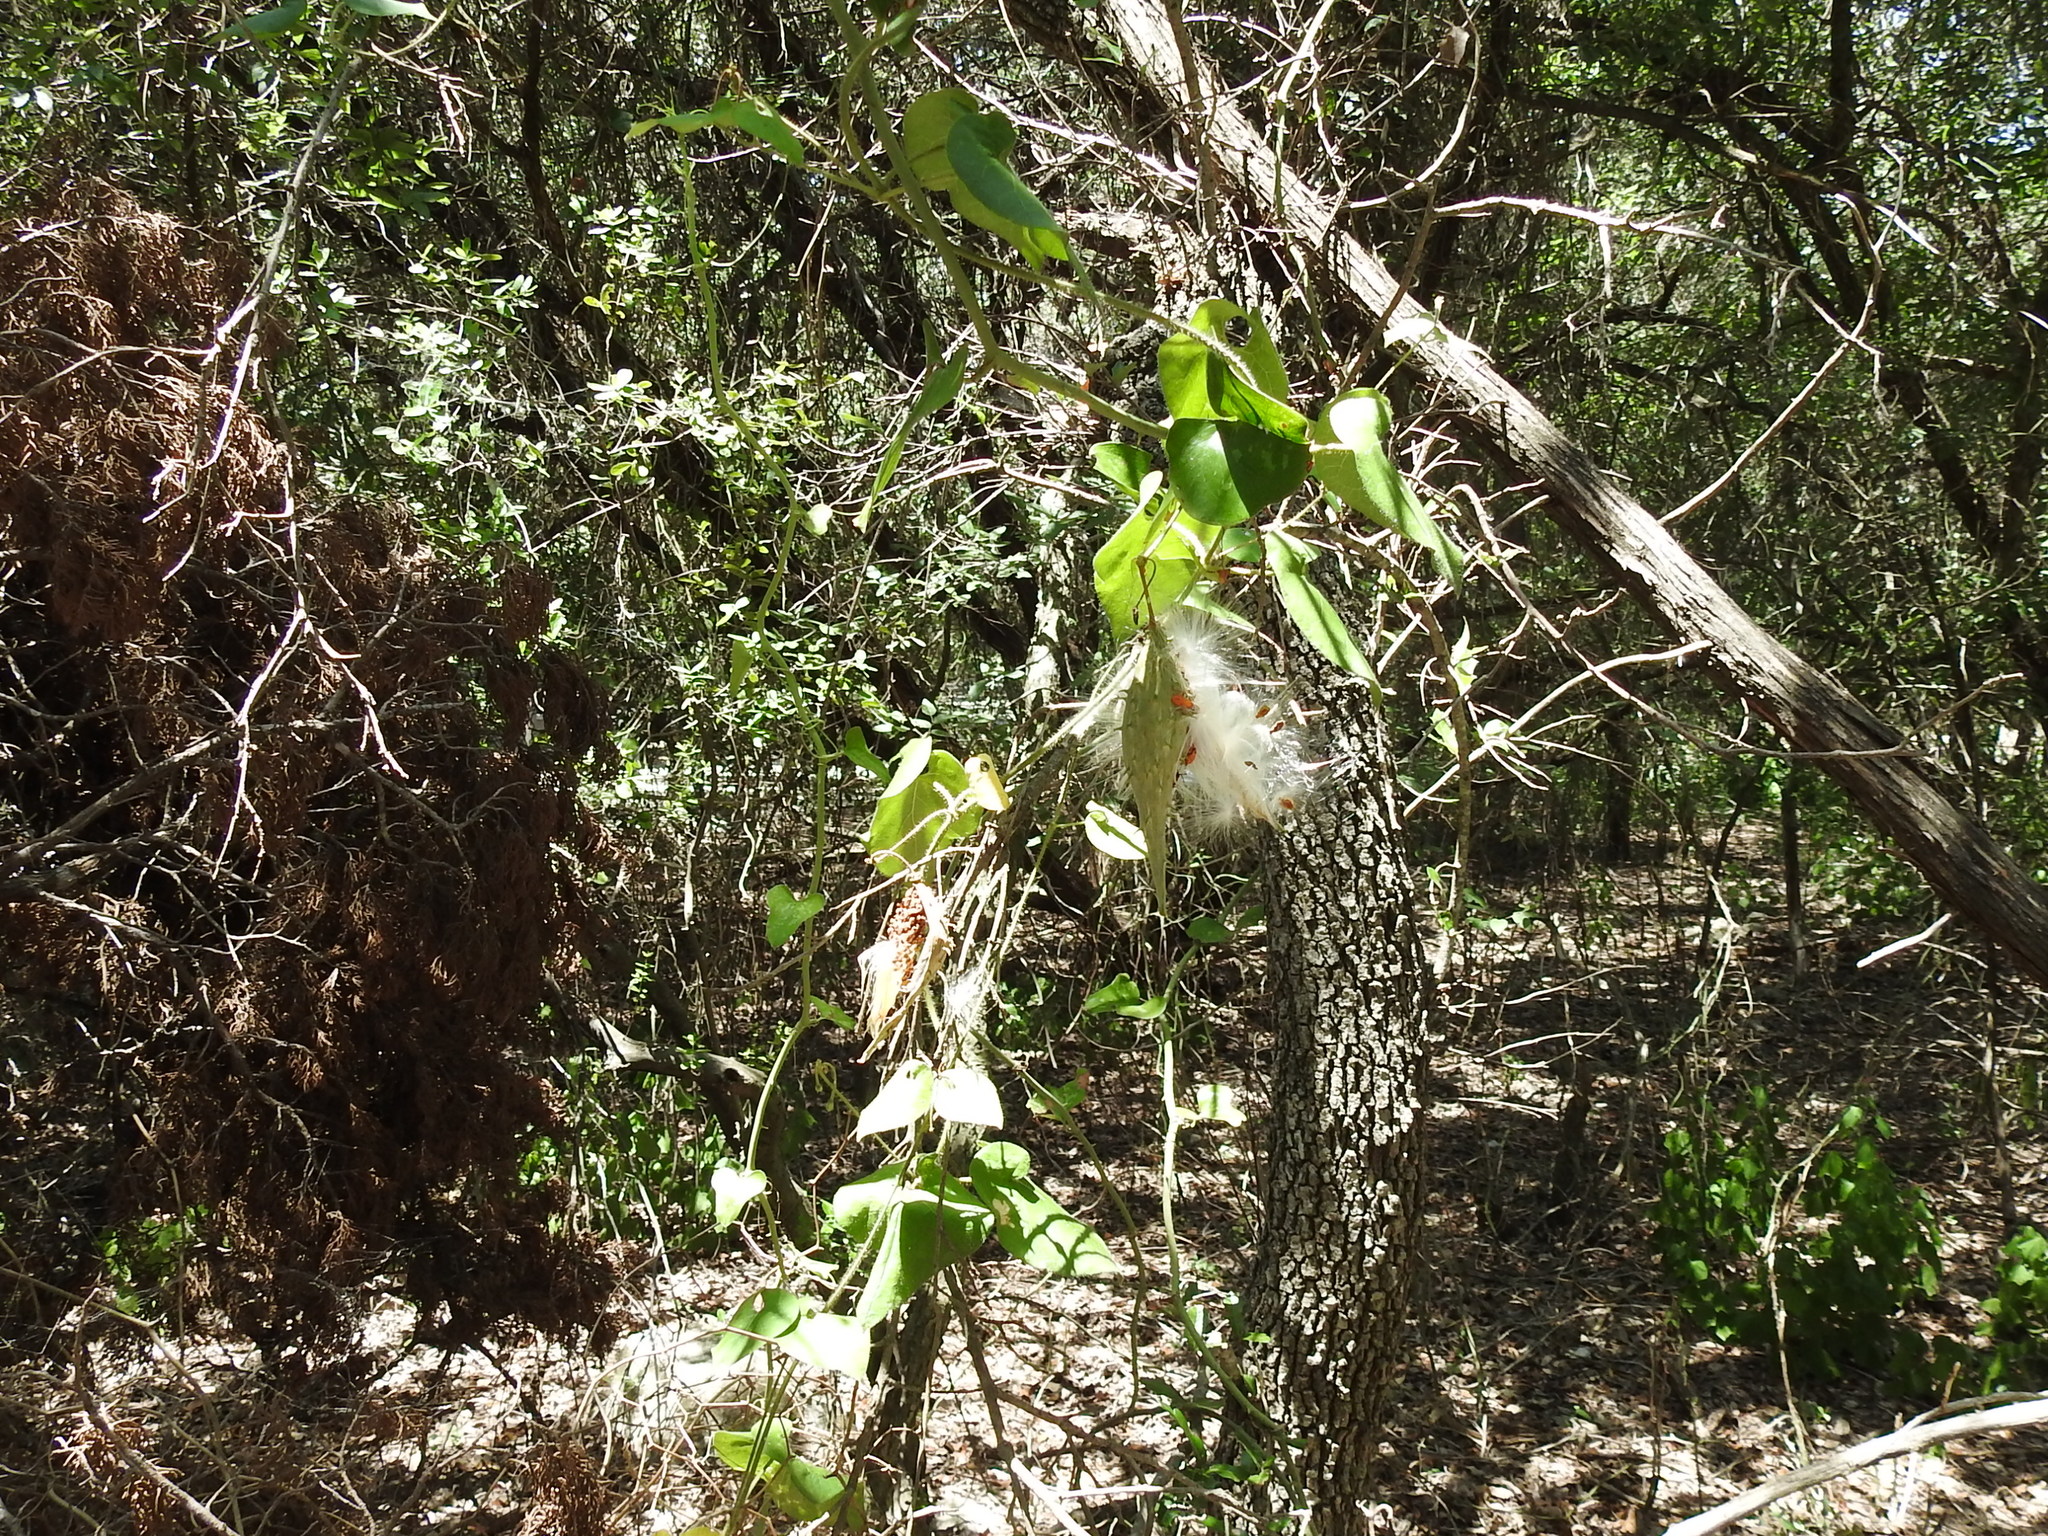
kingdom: Plantae
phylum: Tracheophyta
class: Magnoliopsida
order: Gentianales
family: Apocynaceae
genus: Dictyanthus
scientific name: Dictyanthus reticulatus
